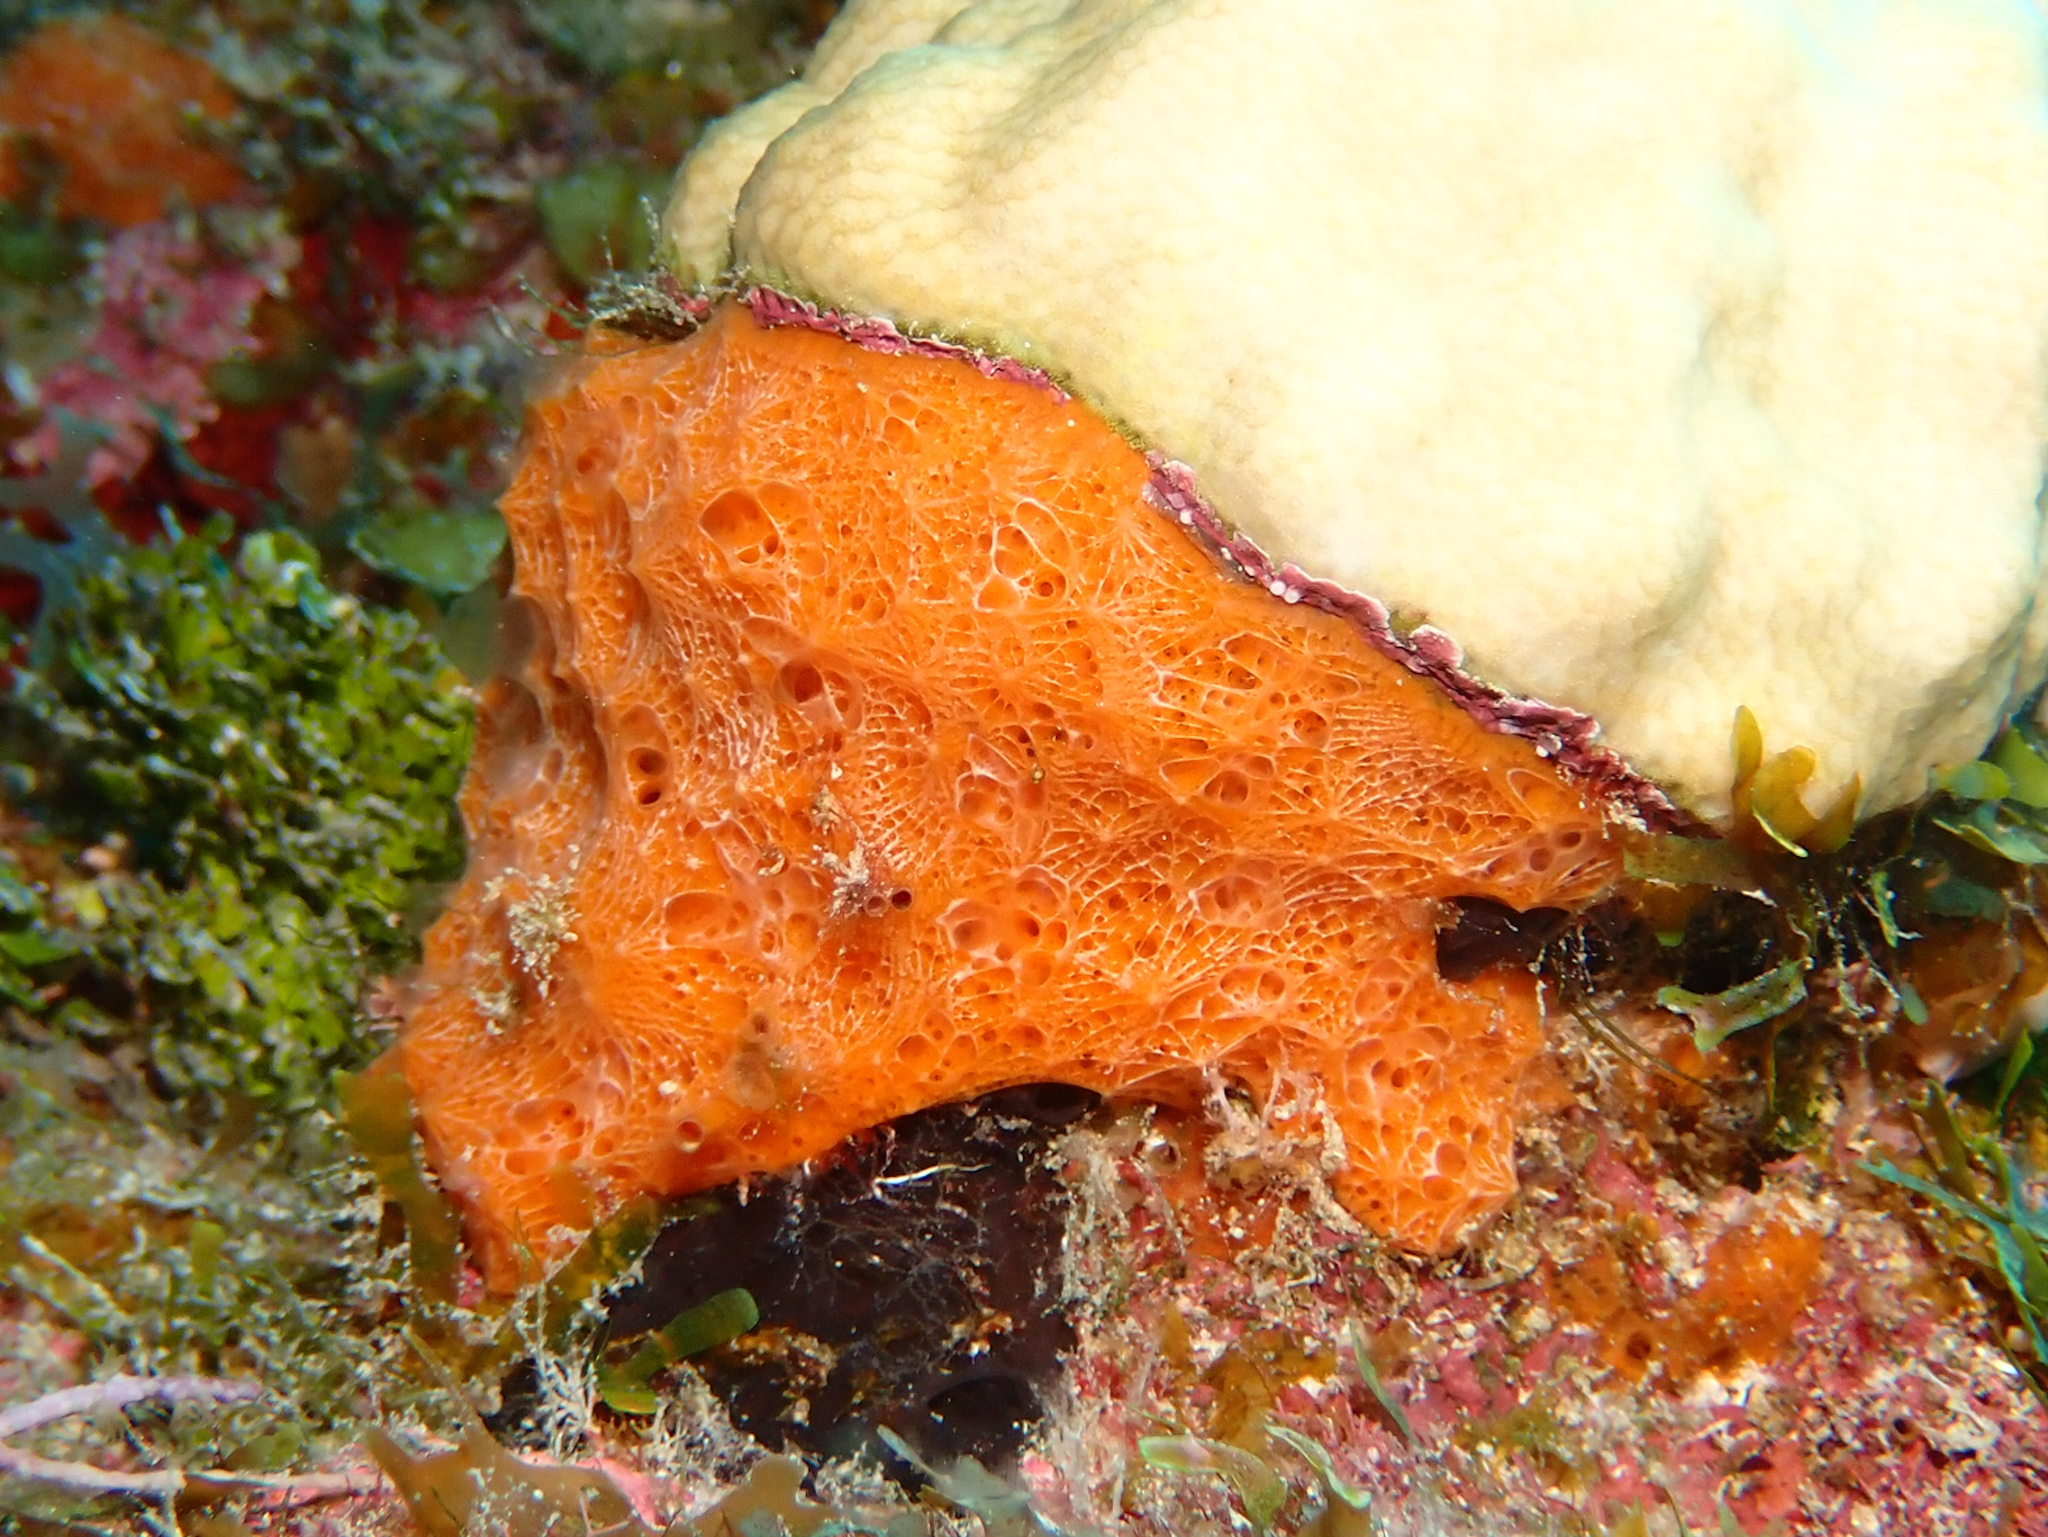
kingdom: Animalia
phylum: Porifera
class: Demospongiae
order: Scopalinida
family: Scopalinidae
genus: Scopalina
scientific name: Scopalina ruetzleri
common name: Orange lumpy encrusting sponge
